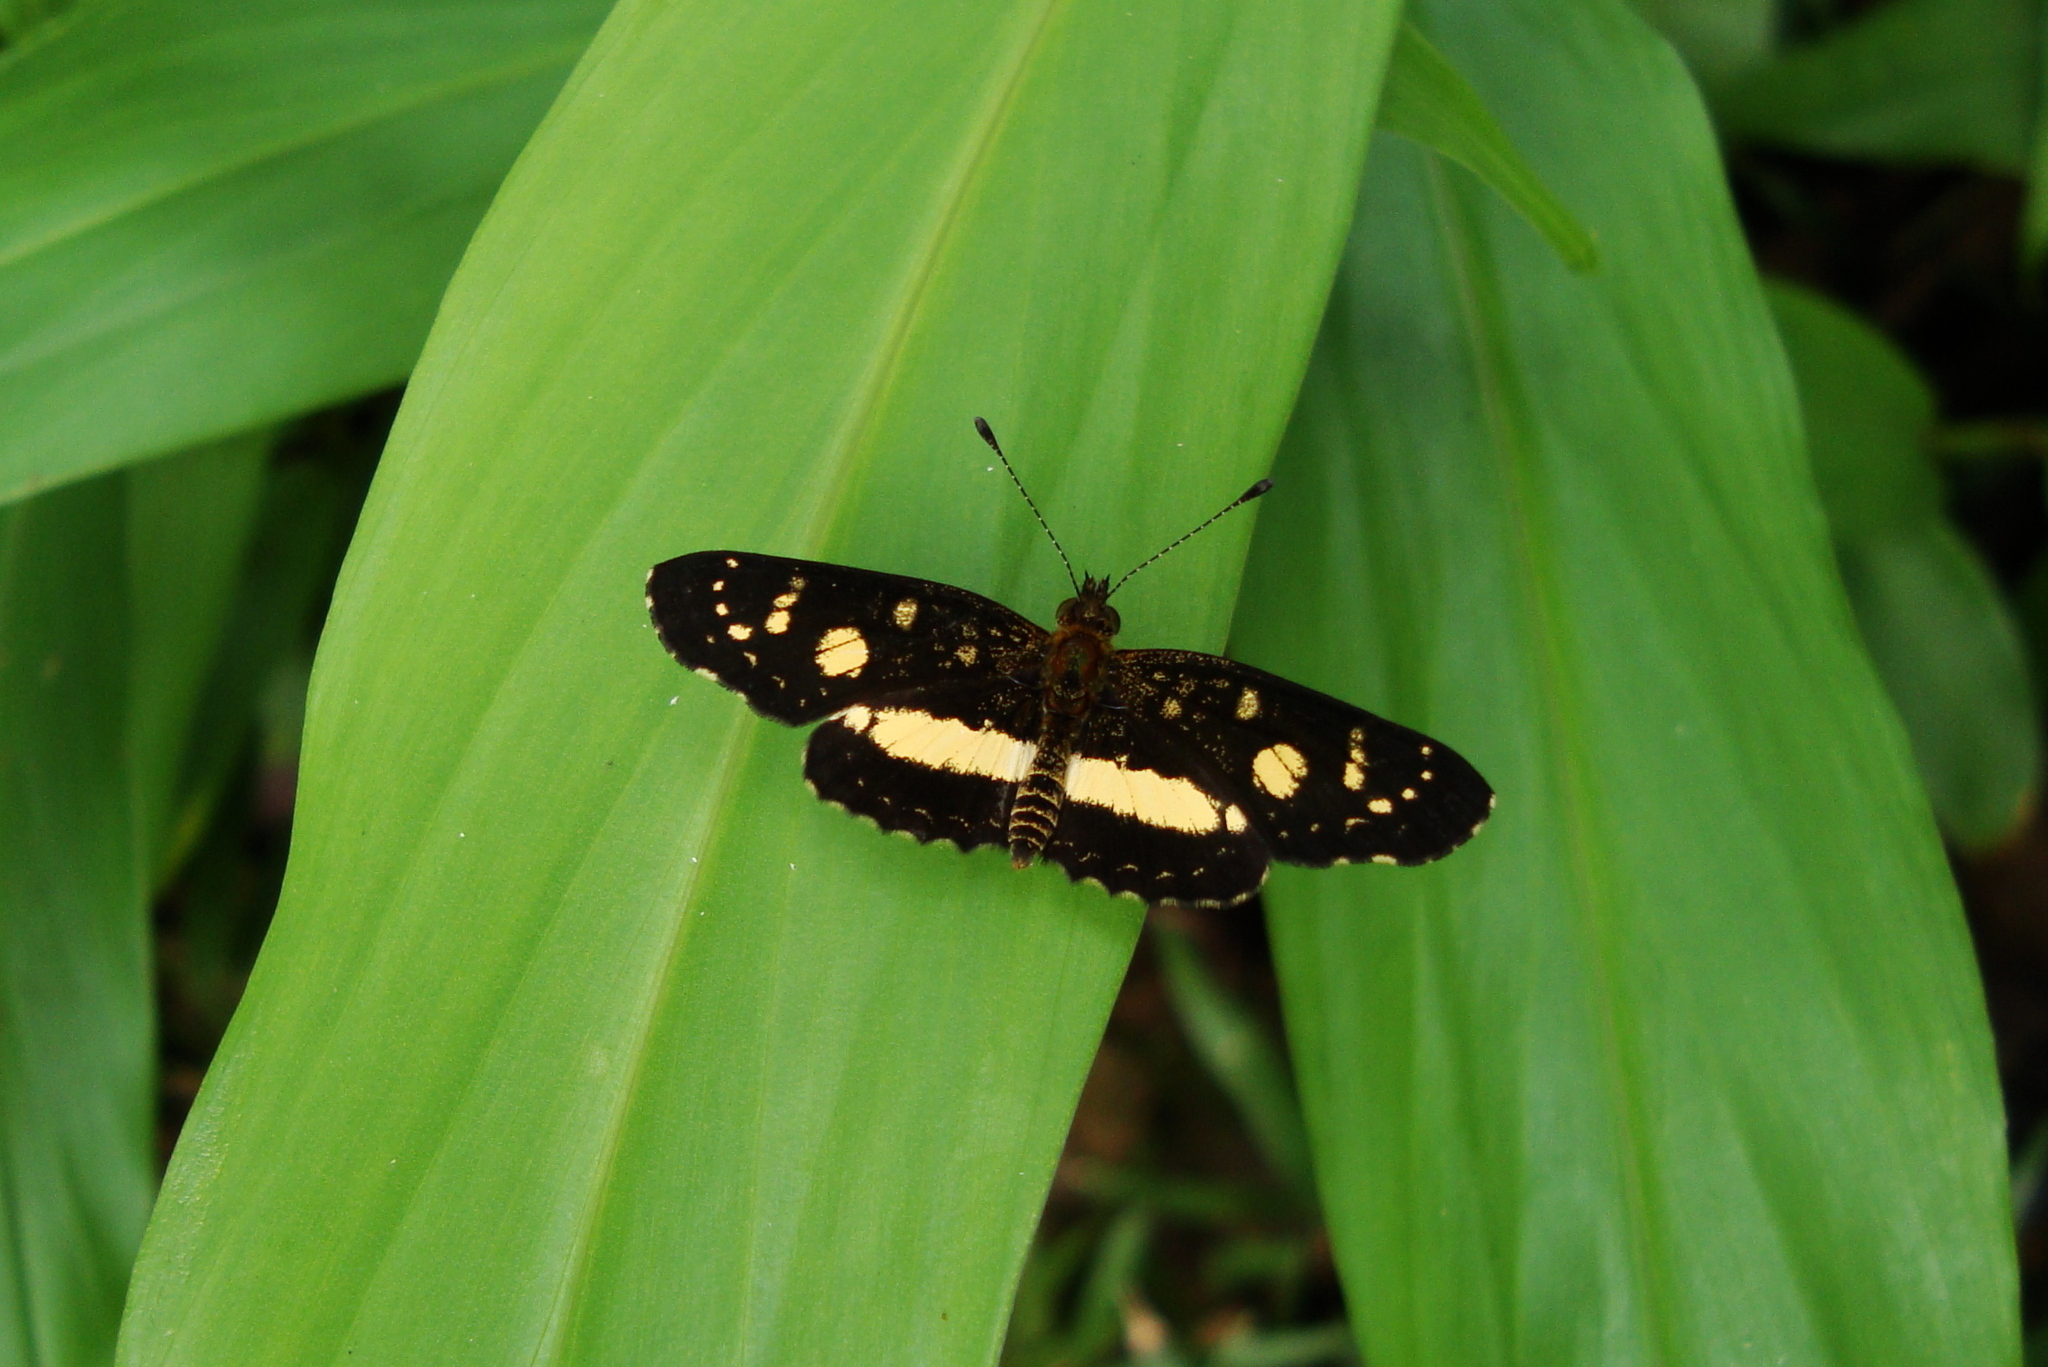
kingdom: Animalia
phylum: Arthropoda
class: Insecta
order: Lepidoptera
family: Nymphalidae
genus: Castilia
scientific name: Castilia angusta
